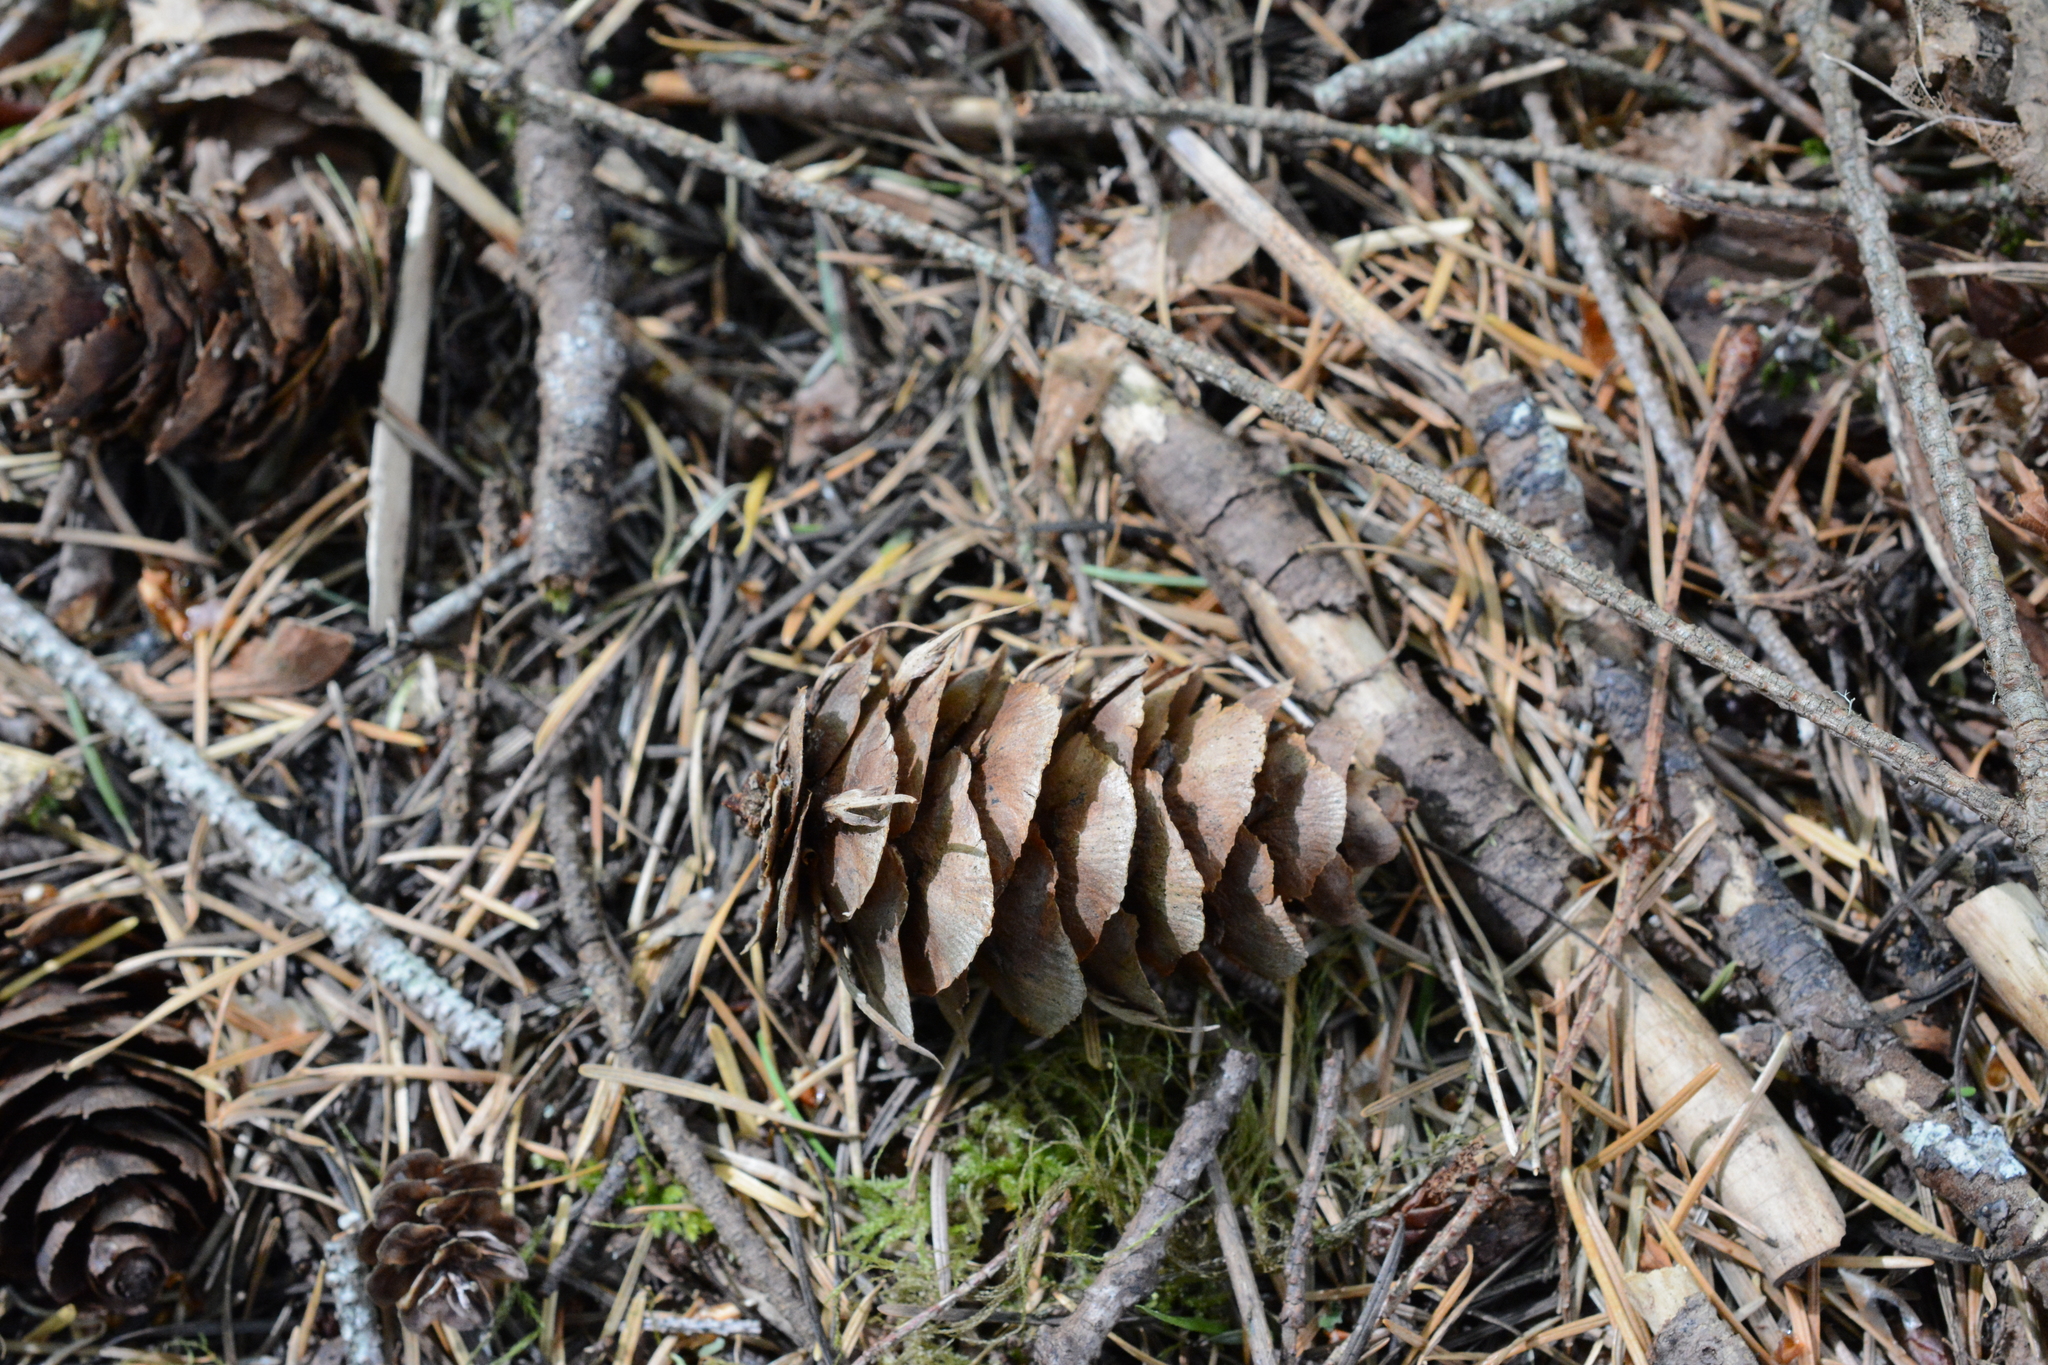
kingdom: Plantae
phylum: Tracheophyta
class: Pinopsida
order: Pinales
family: Pinaceae
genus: Pseudotsuga
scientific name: Pseudotsuga menziesii
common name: Douglas fir
